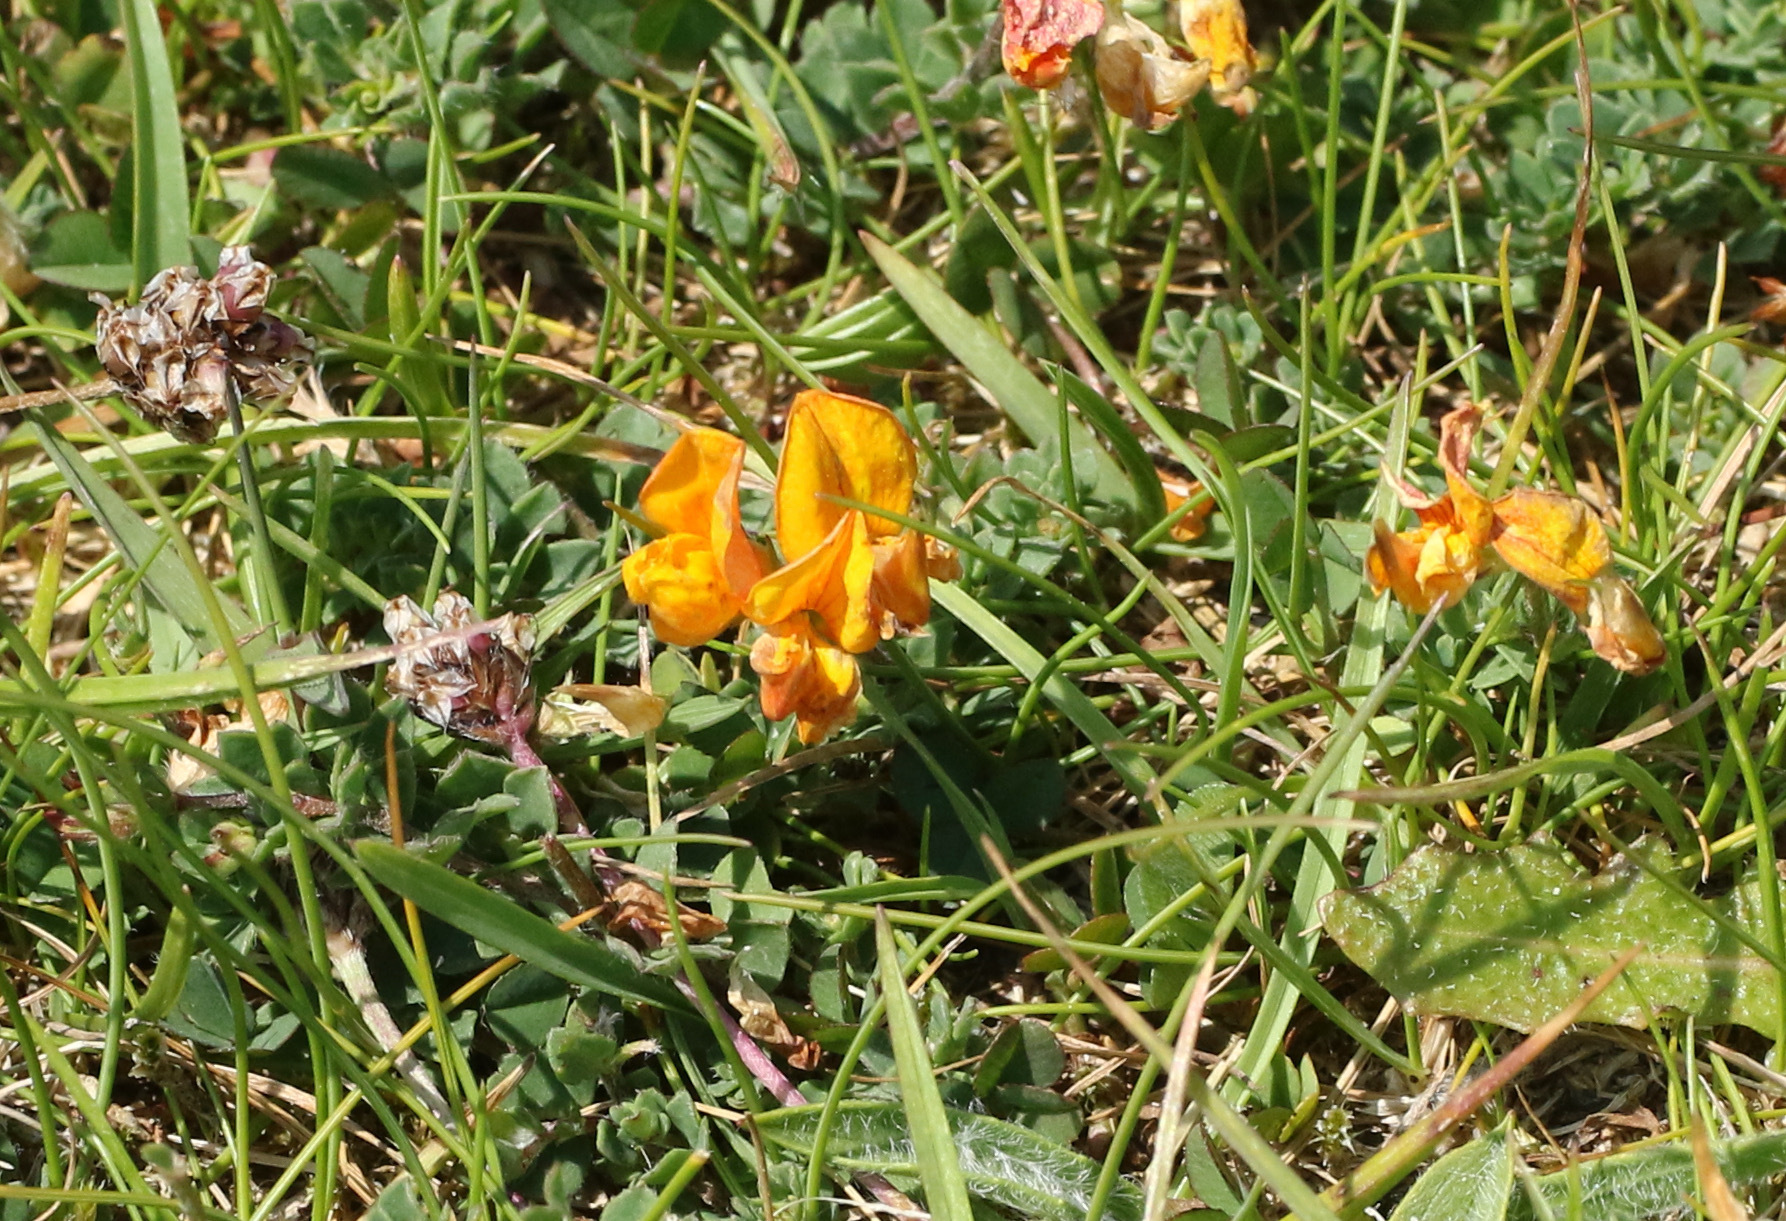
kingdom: Plantae
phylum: Tracheophyta
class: Magnoliopsida
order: Fabales
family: Fabaceae
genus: Lotus
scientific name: Lotus corniculatus
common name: Common bird's-foot-trefoil
